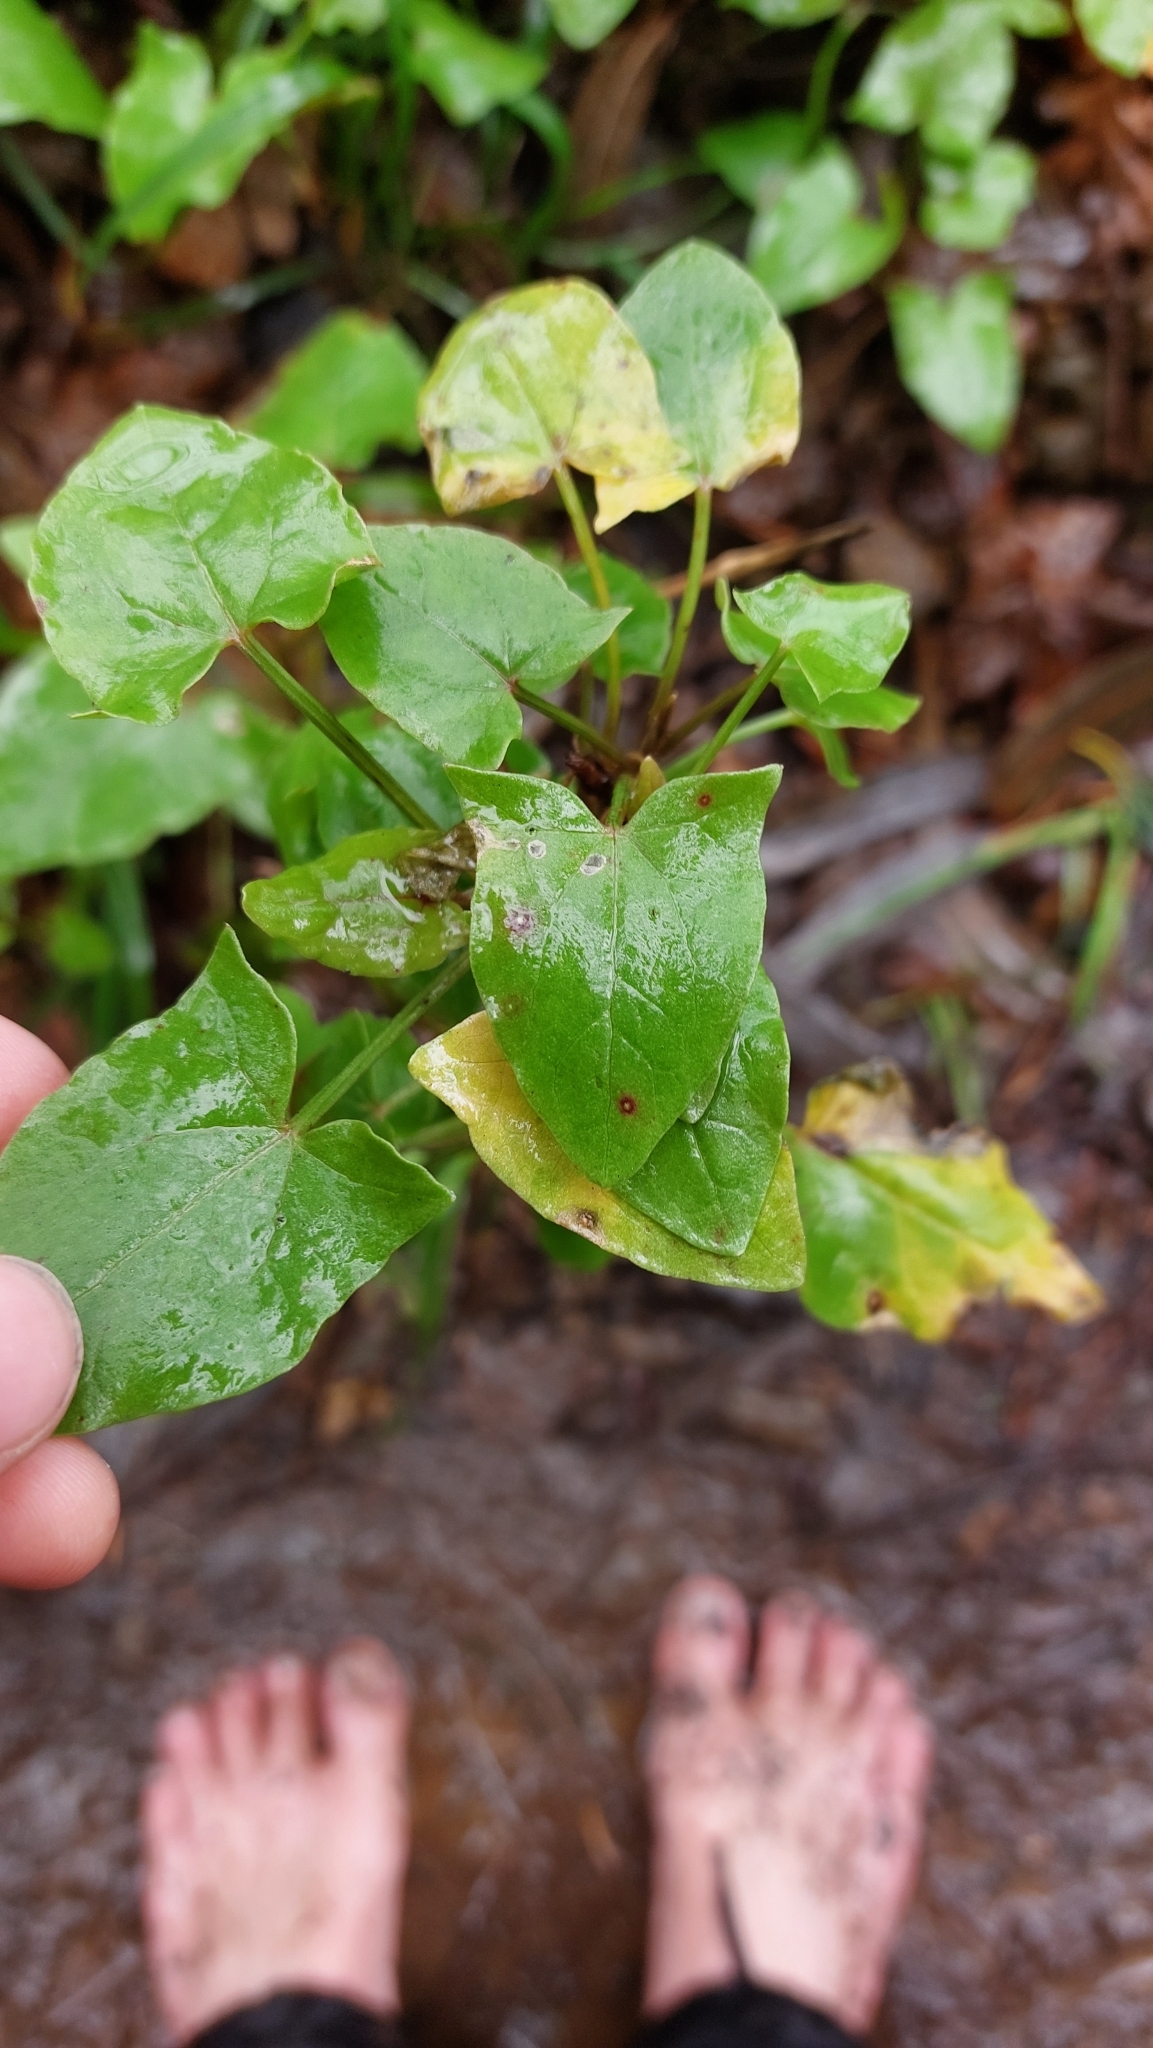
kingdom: Plantae
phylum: Tracheophyta
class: Magnoliopsida
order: Caryophyllales
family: Polygonaceae
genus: Rumex
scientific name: Rumex maderensis
